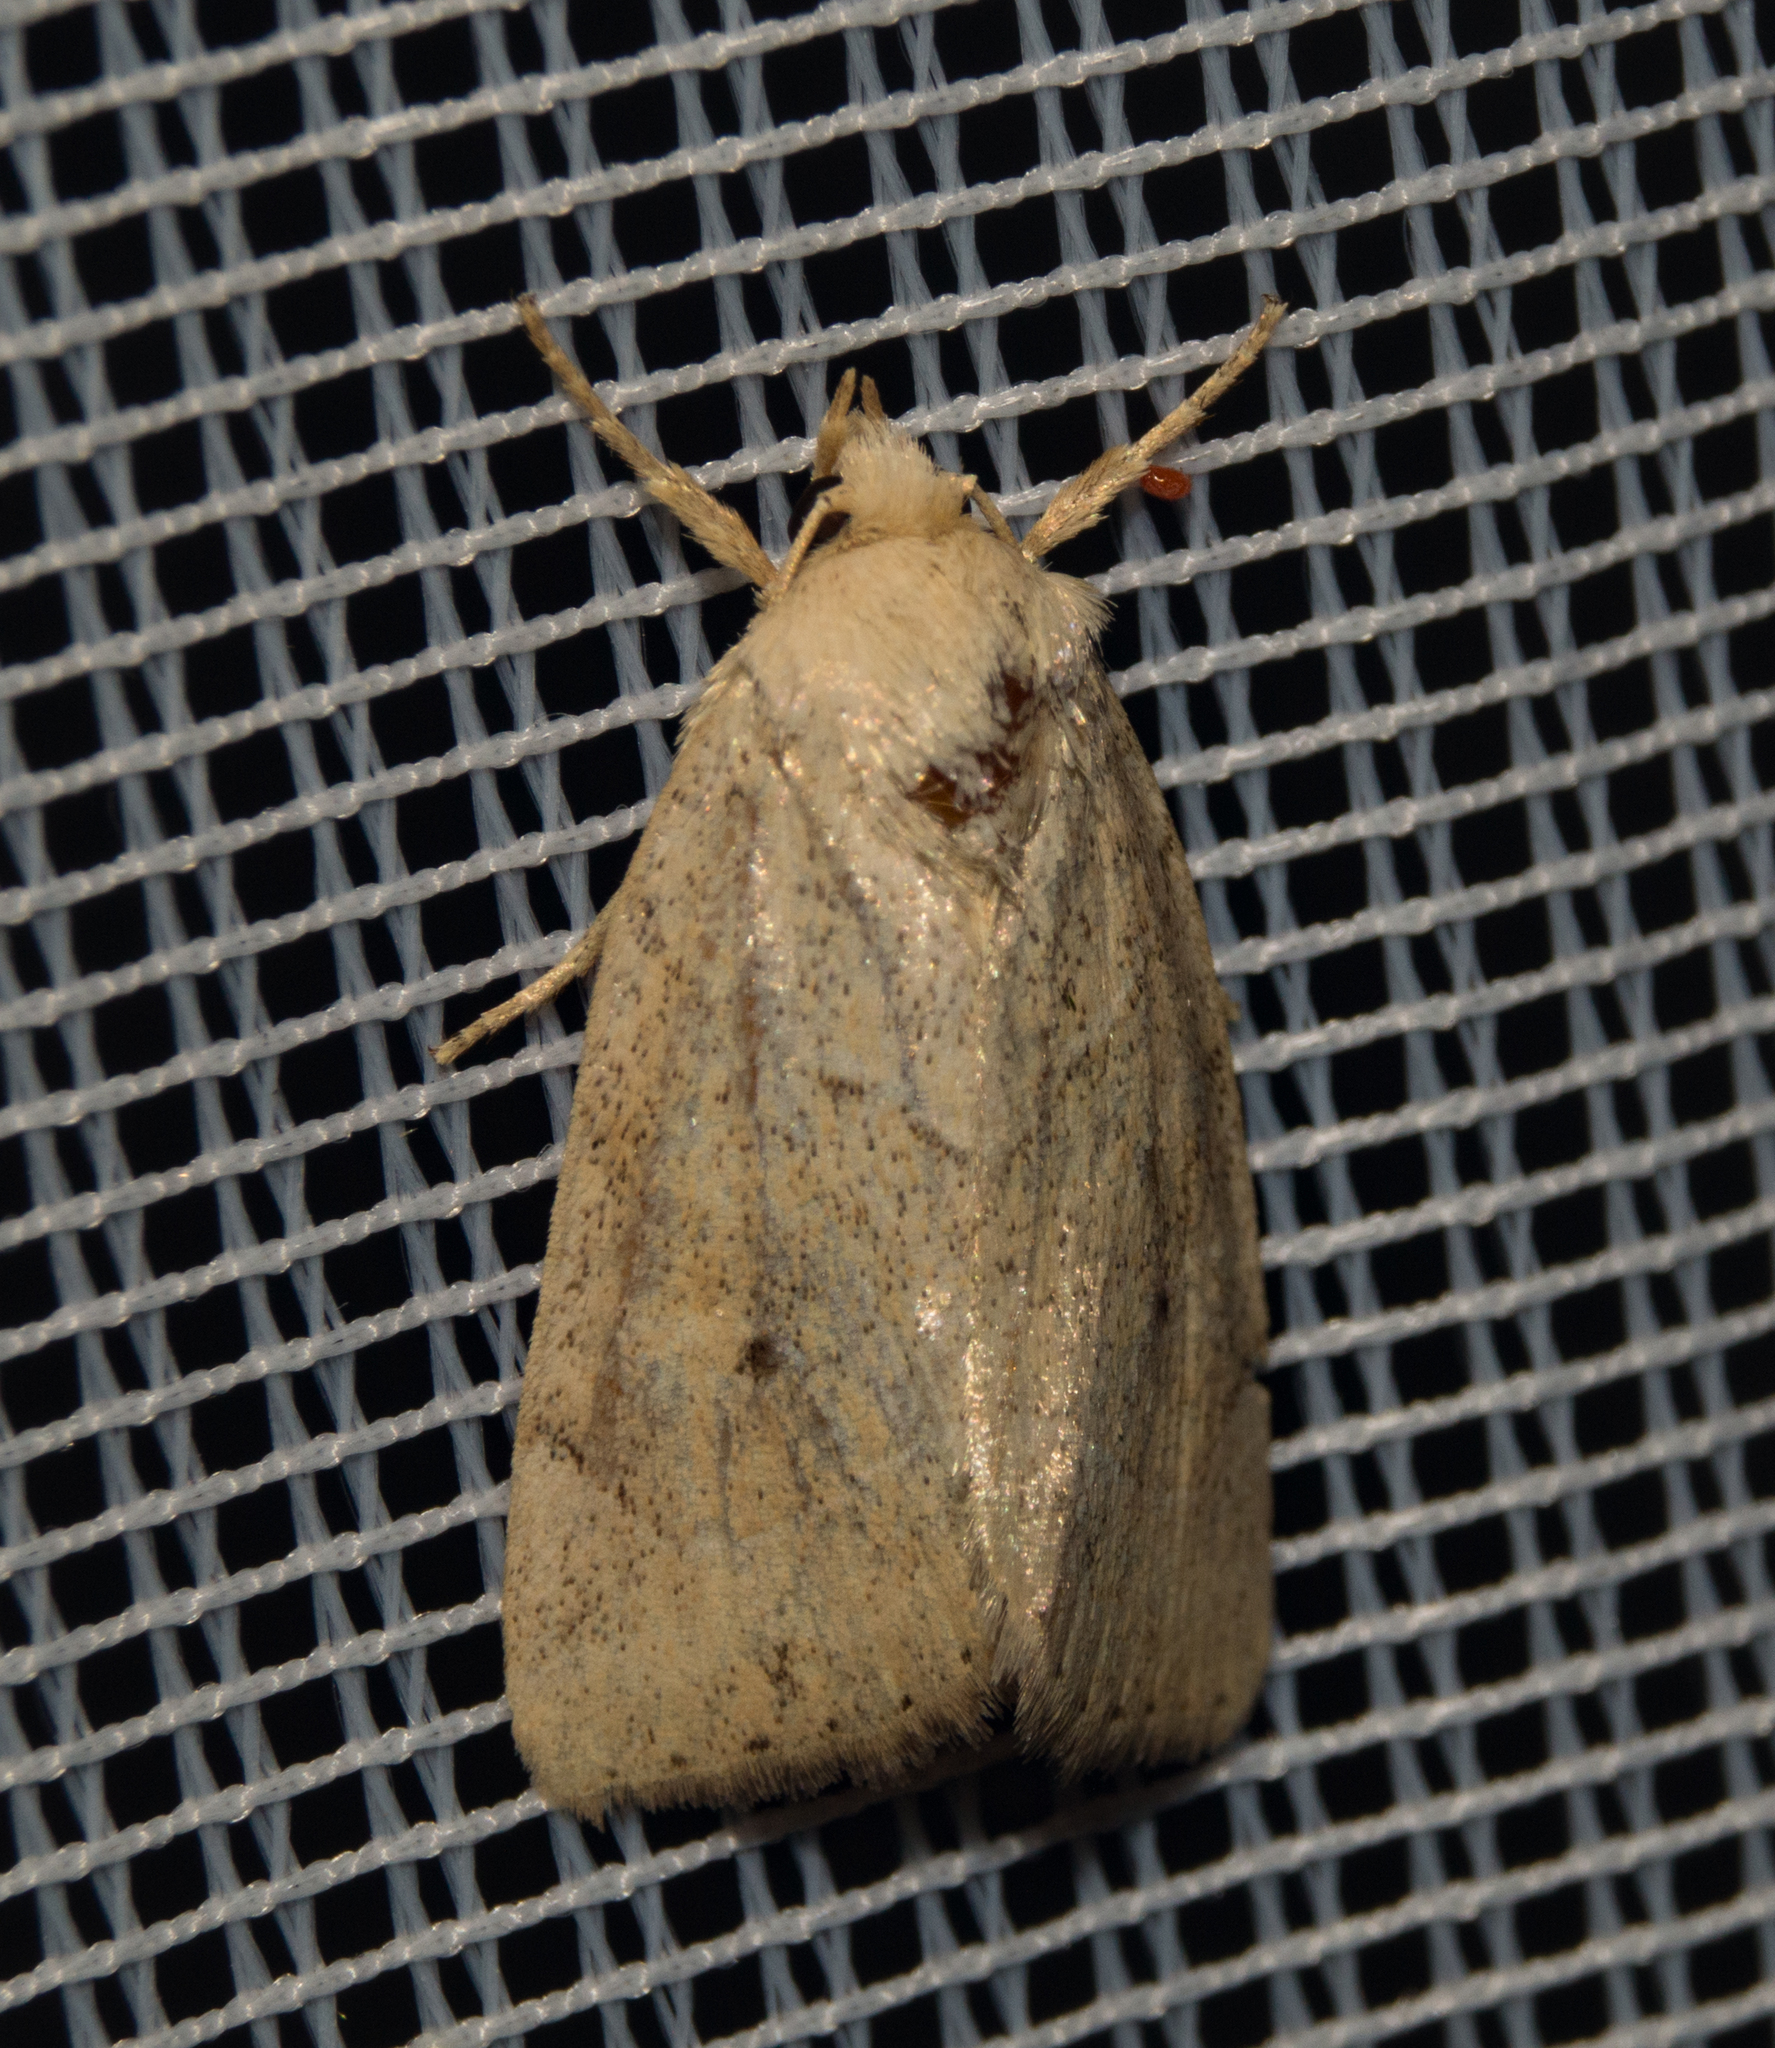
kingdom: Animalia
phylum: Arthropoda
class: Insecta
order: Lepidoptera
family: Noctuidae
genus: Cosmia
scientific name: Cosmia trapezina
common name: Dun-bar
